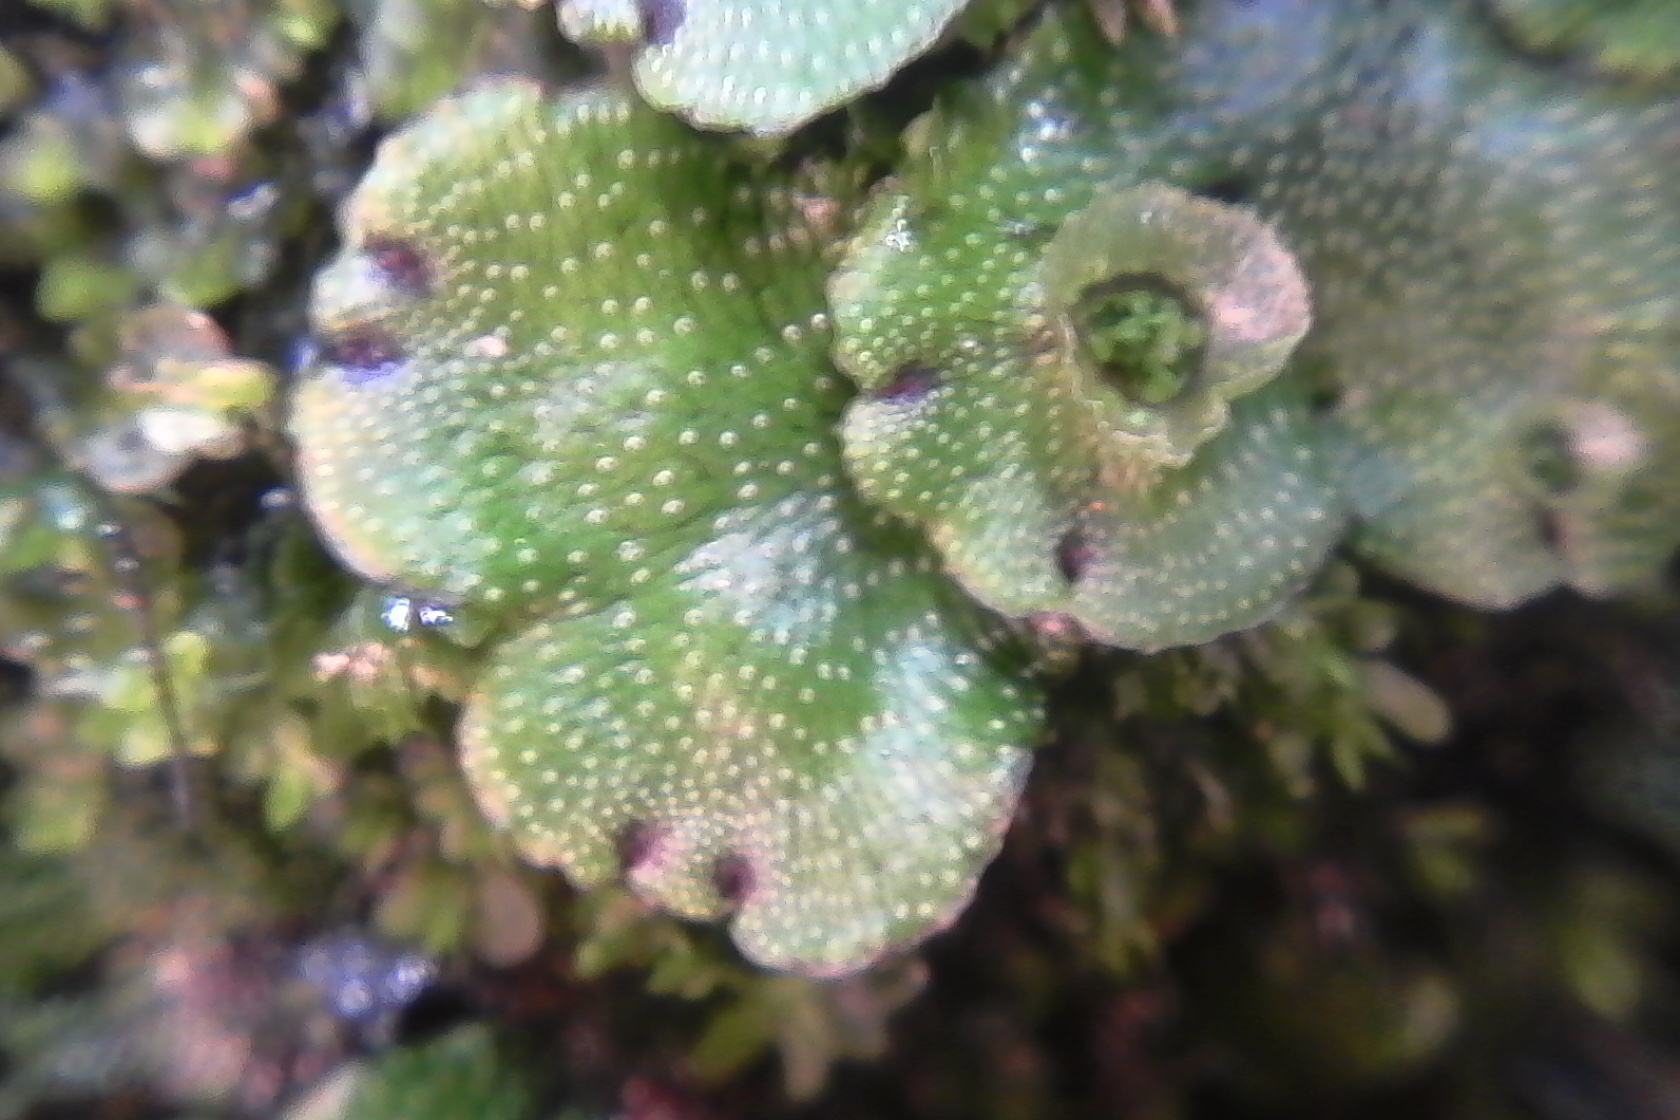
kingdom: Plantae
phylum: Marchantiophyta
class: Marchantiopsida
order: Marchantiales
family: Marchantiaceae
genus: Marchantia
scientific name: Marchantia foliacea
